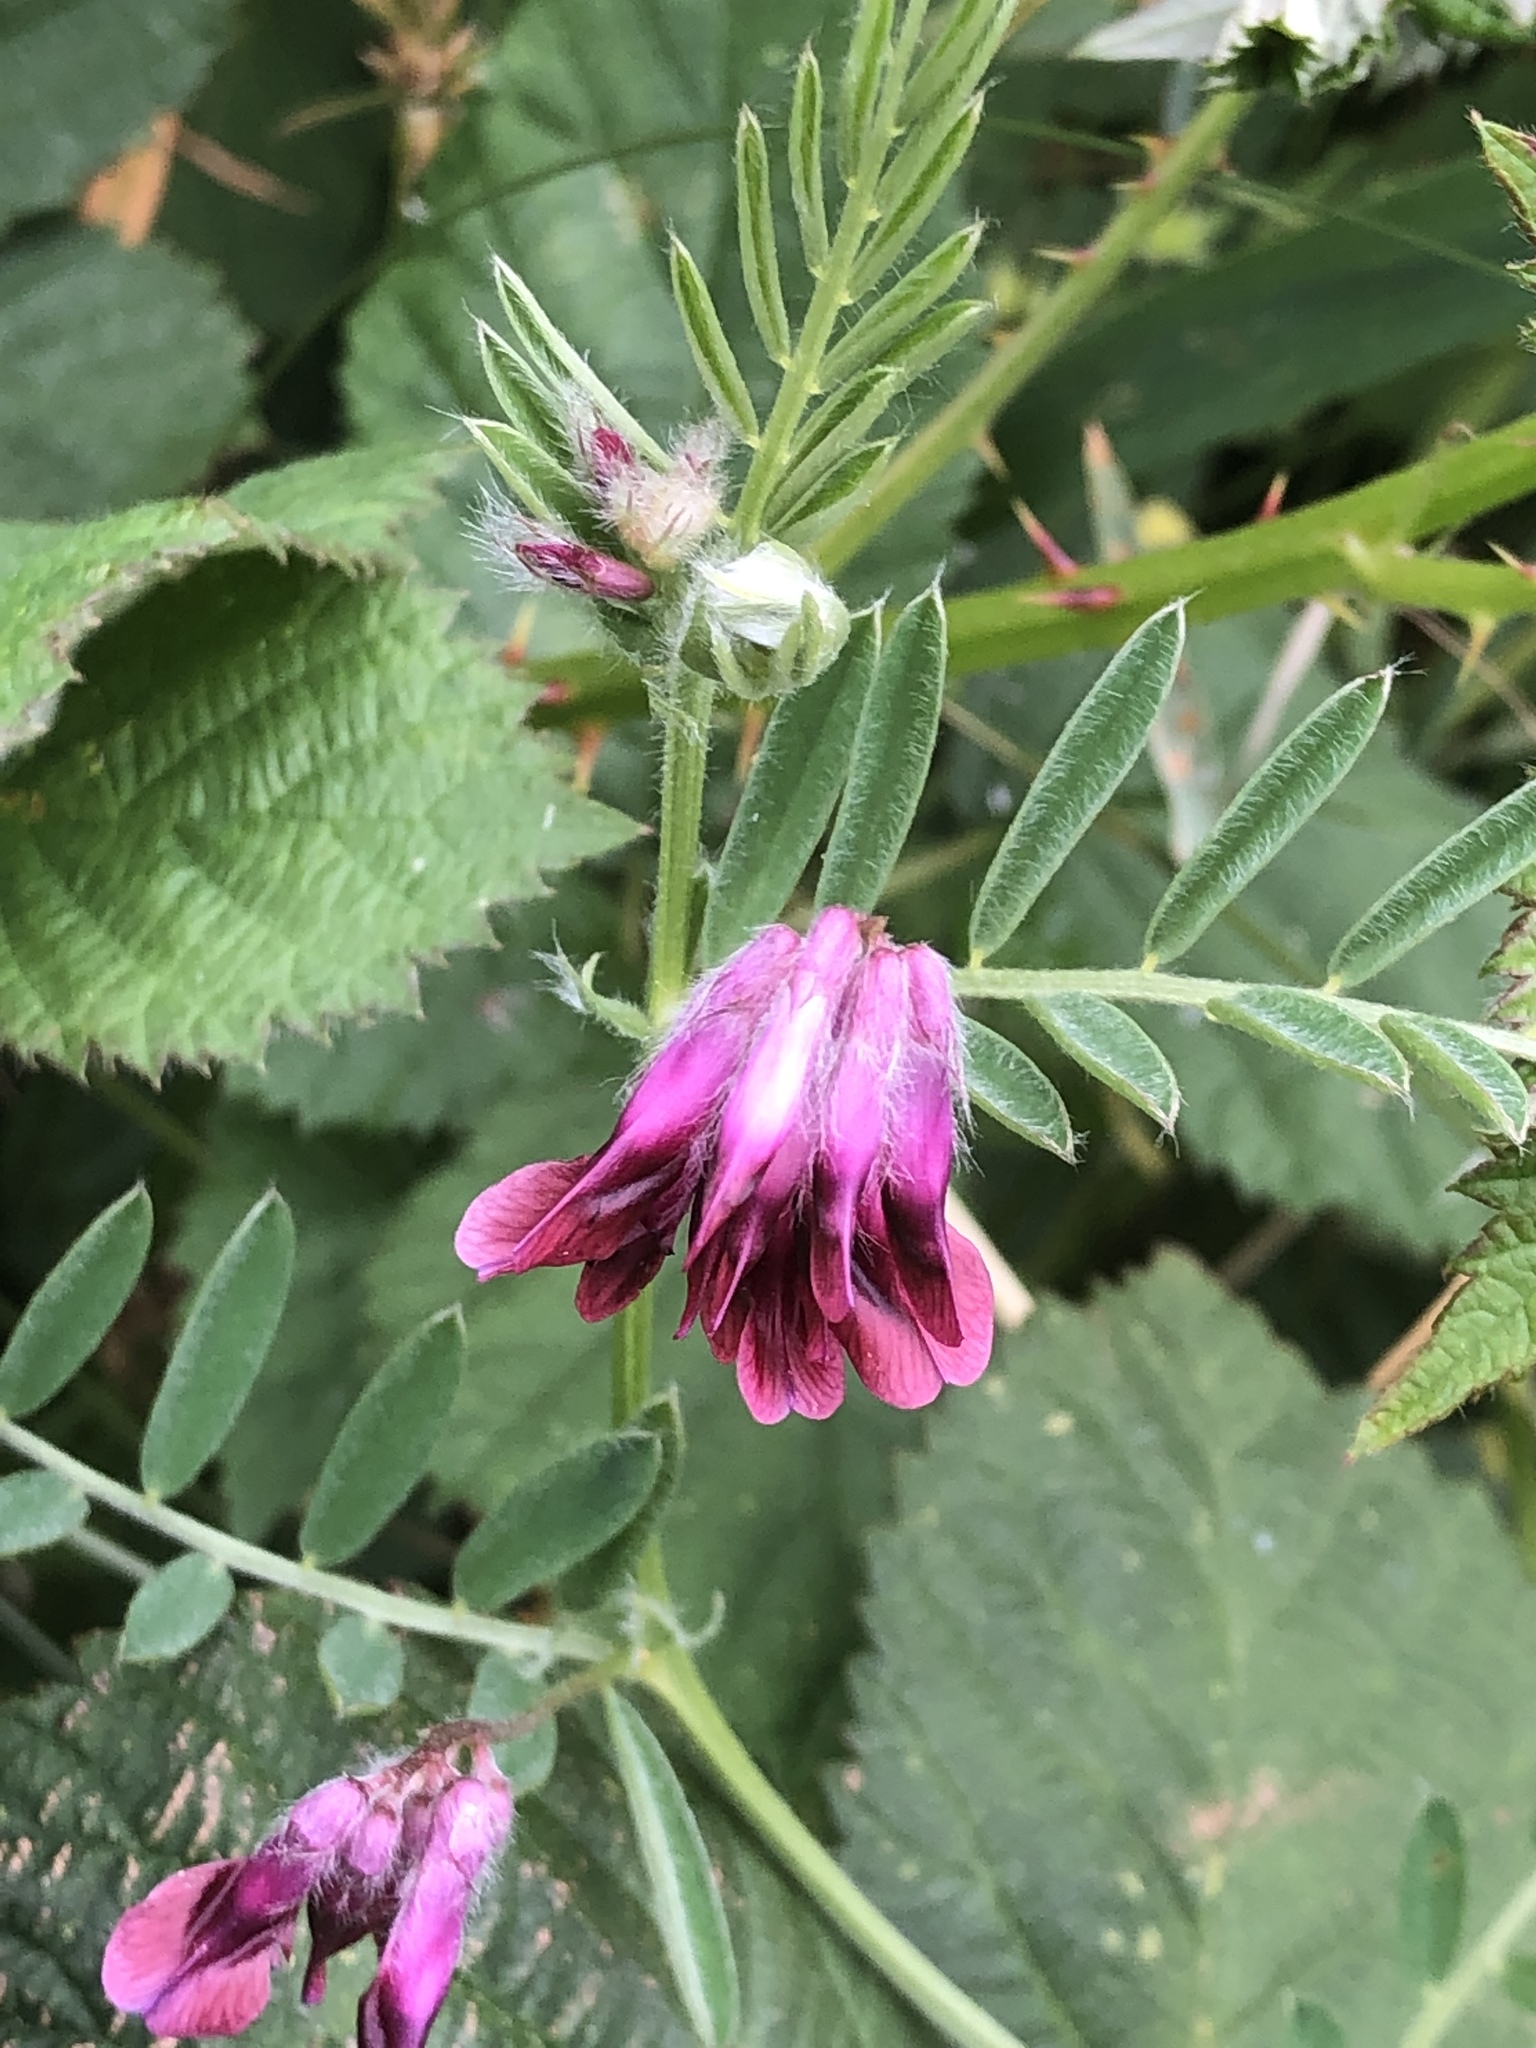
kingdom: Plantae
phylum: Tracheophyta
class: Magnoliopsida
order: Fabales
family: Fabaceae
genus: Vicia
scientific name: Vicia benghalensis
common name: Purple vetch
